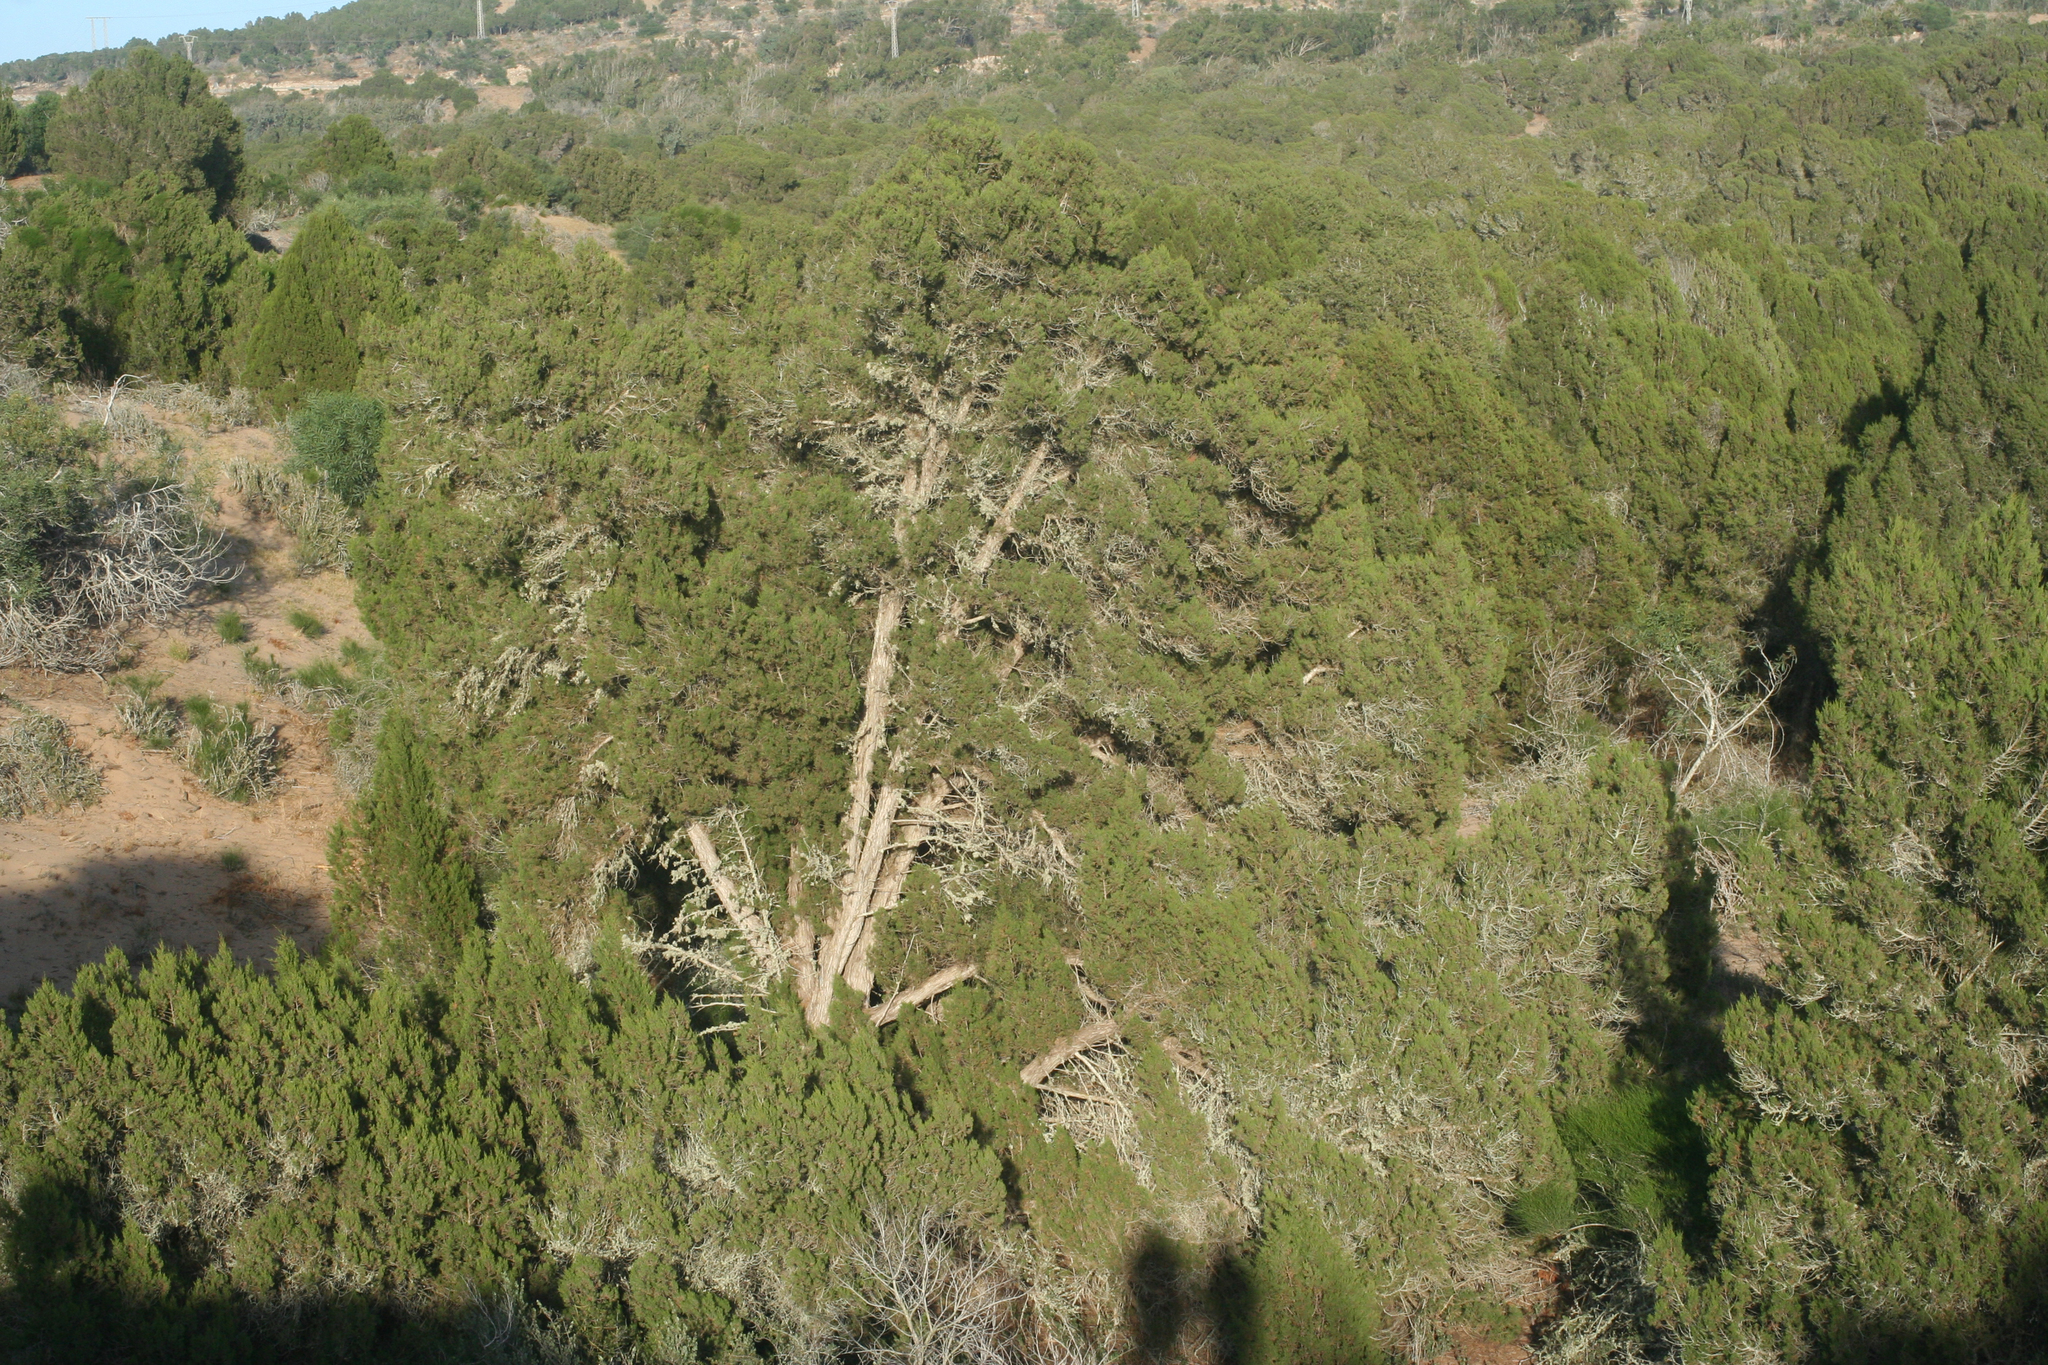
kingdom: Plantae
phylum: Tracheophyta
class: Pinopsida
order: Pinales
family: Cupressaceae
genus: Juniperus
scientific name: Juniperus phoenicea
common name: Phoenician juniper
